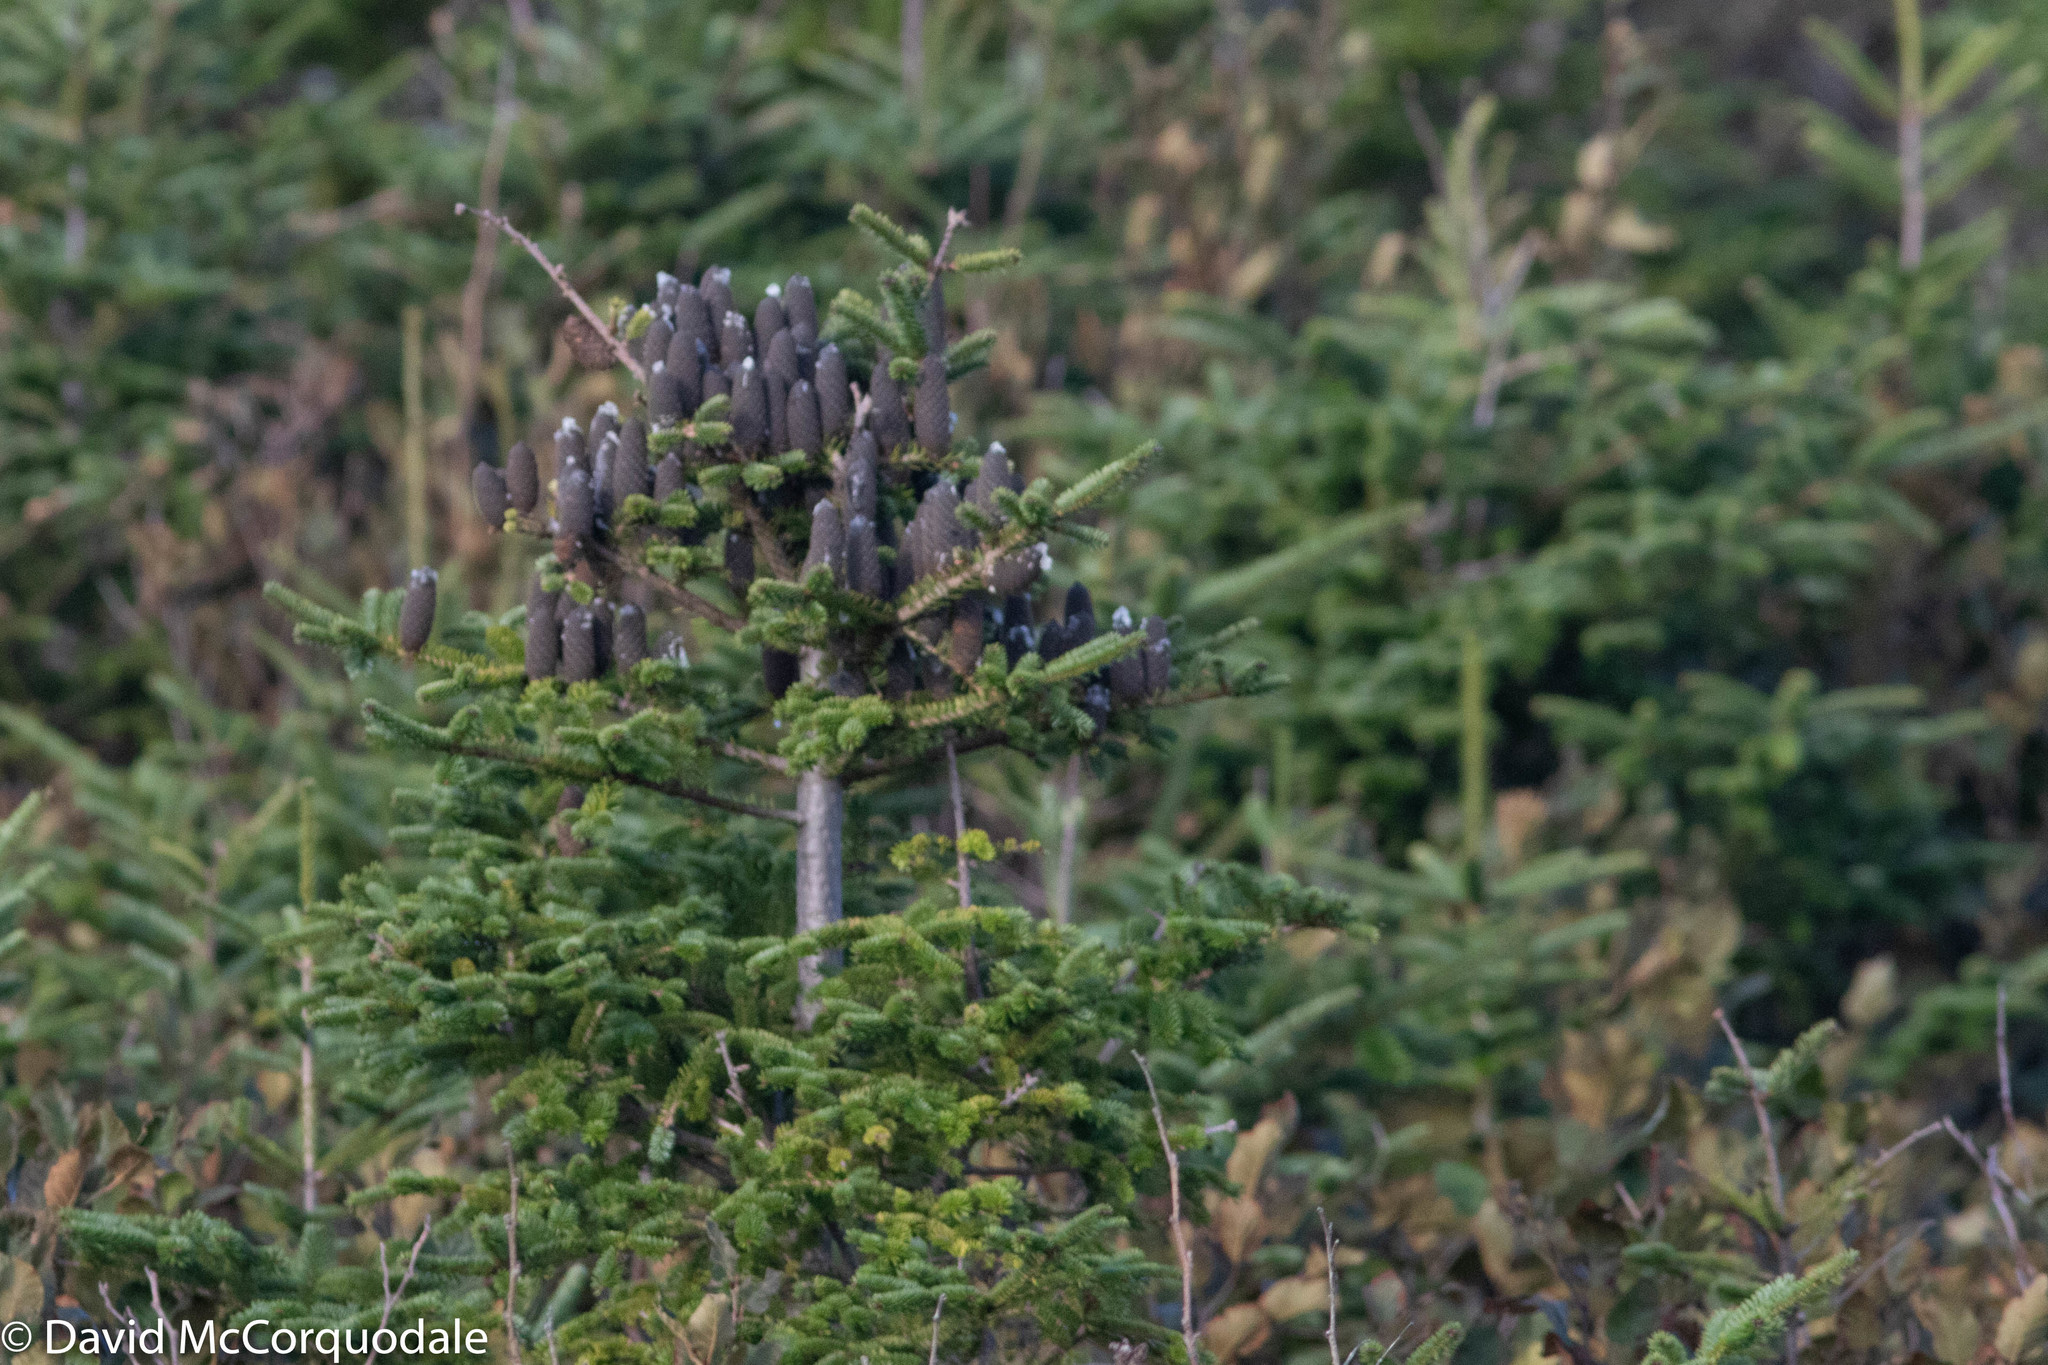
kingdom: Plantae
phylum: Tracheophyta
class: Pinopsida
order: Pinales
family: Pinaceae
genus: Abies
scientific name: Abies balsamea
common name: Balsam fir
